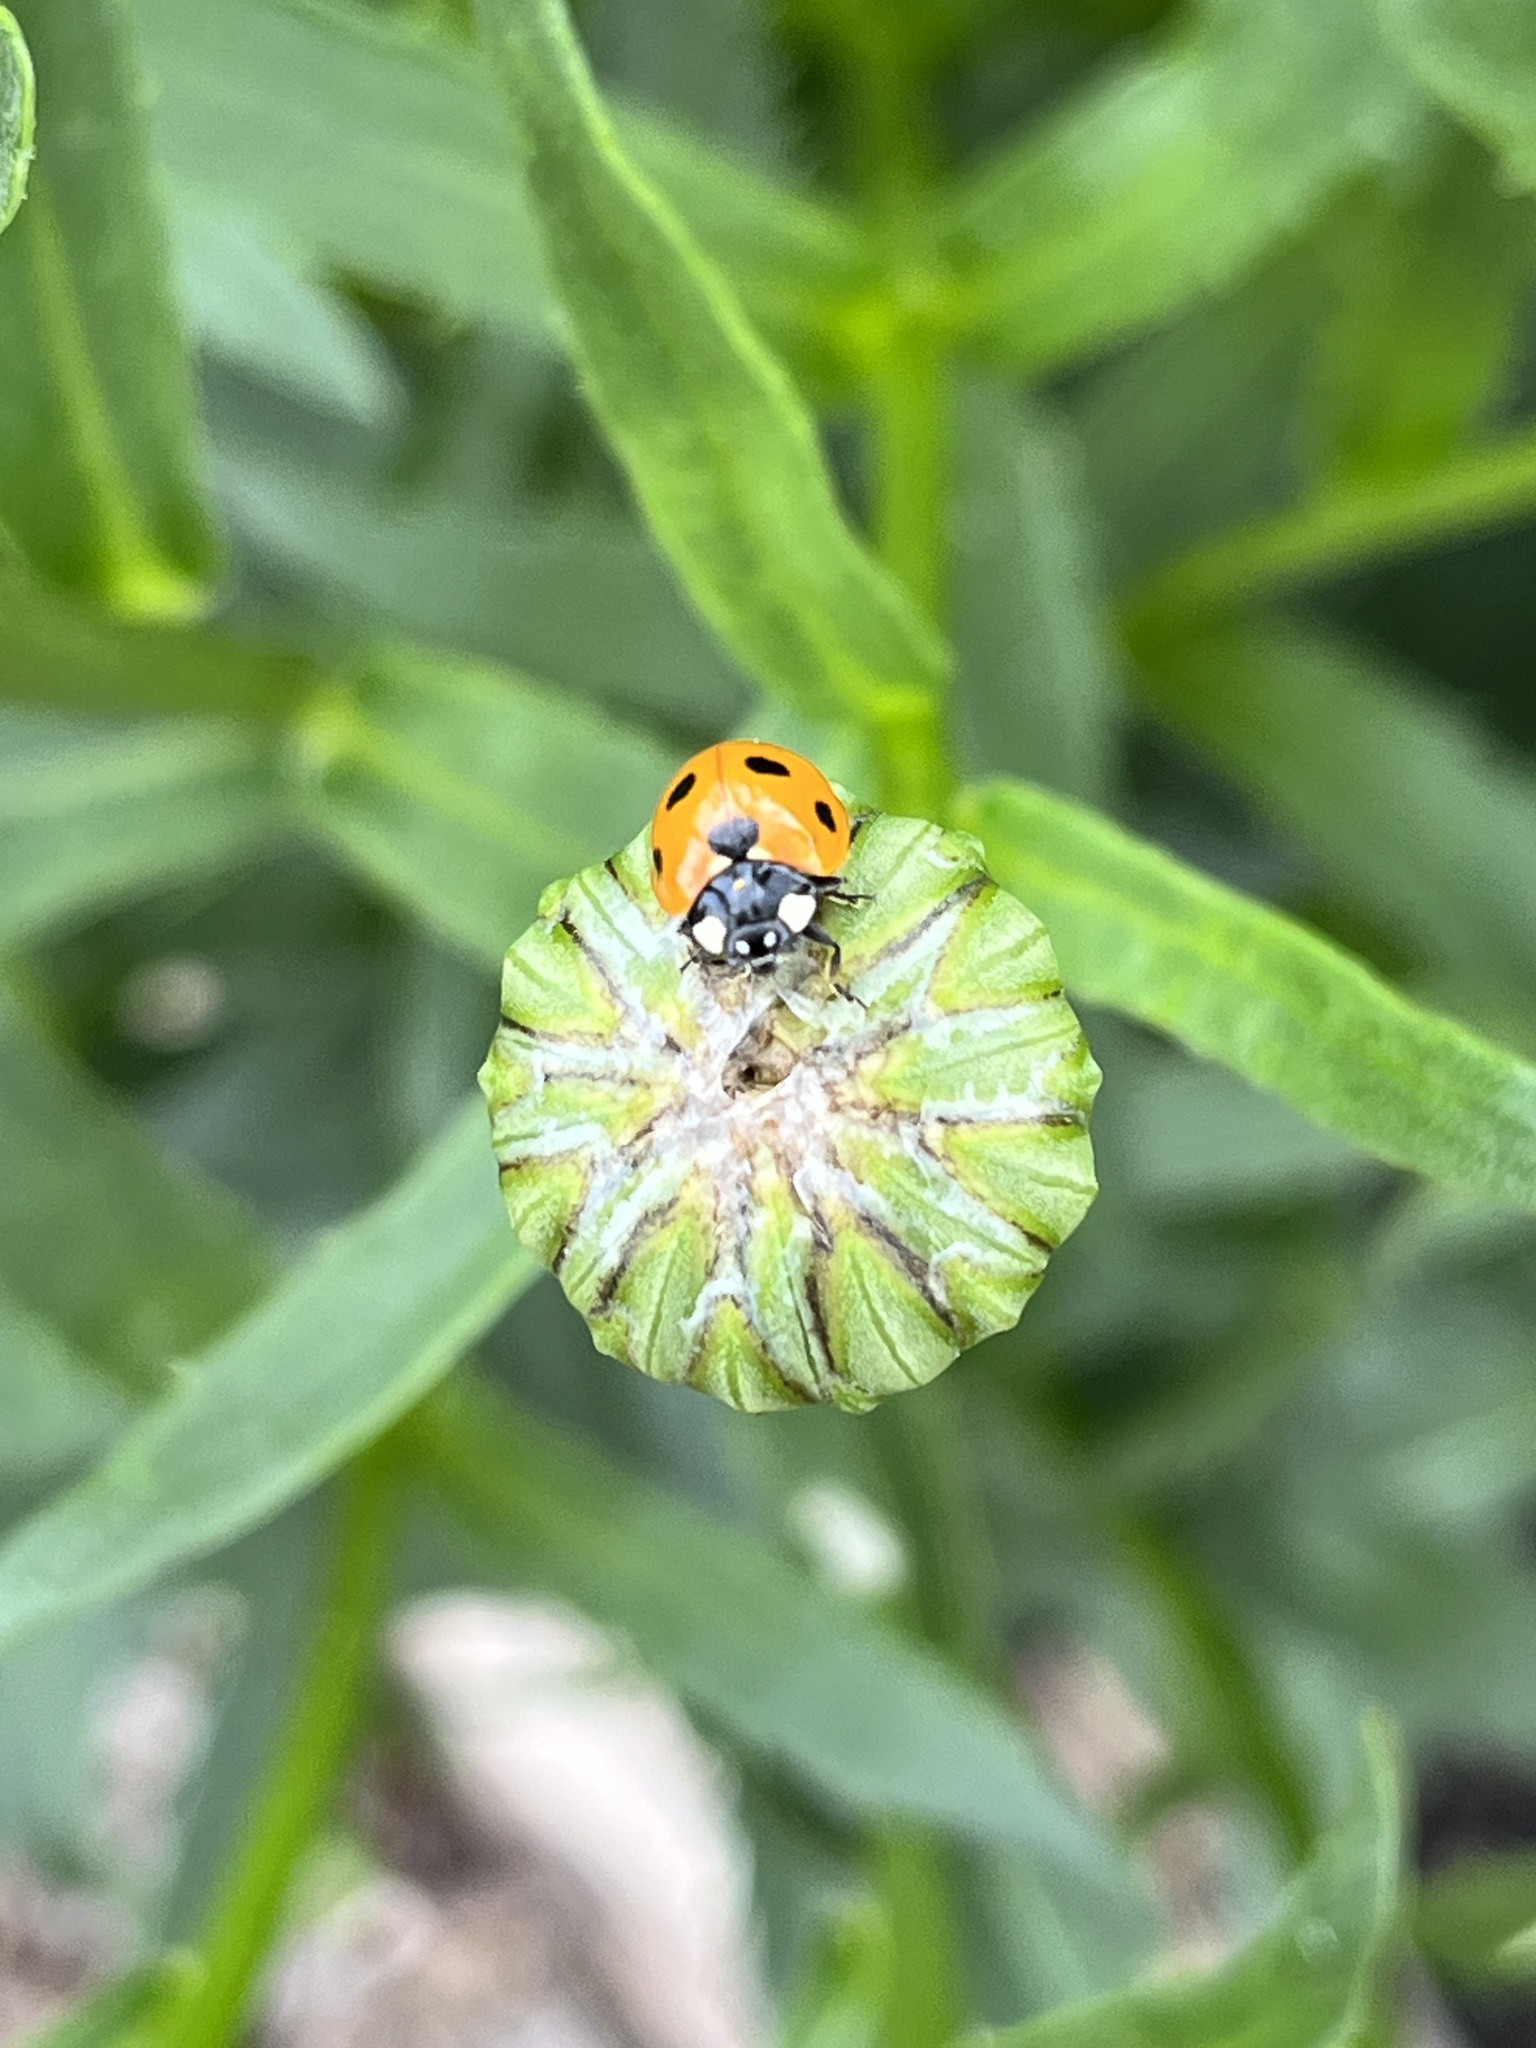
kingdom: Animalia
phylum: Arthropoda
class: Insecta
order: Coleoptera
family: Coccinellidae
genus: Coccinella
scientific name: Coccinella septempunctata
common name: Sevenspotted lady beetle
